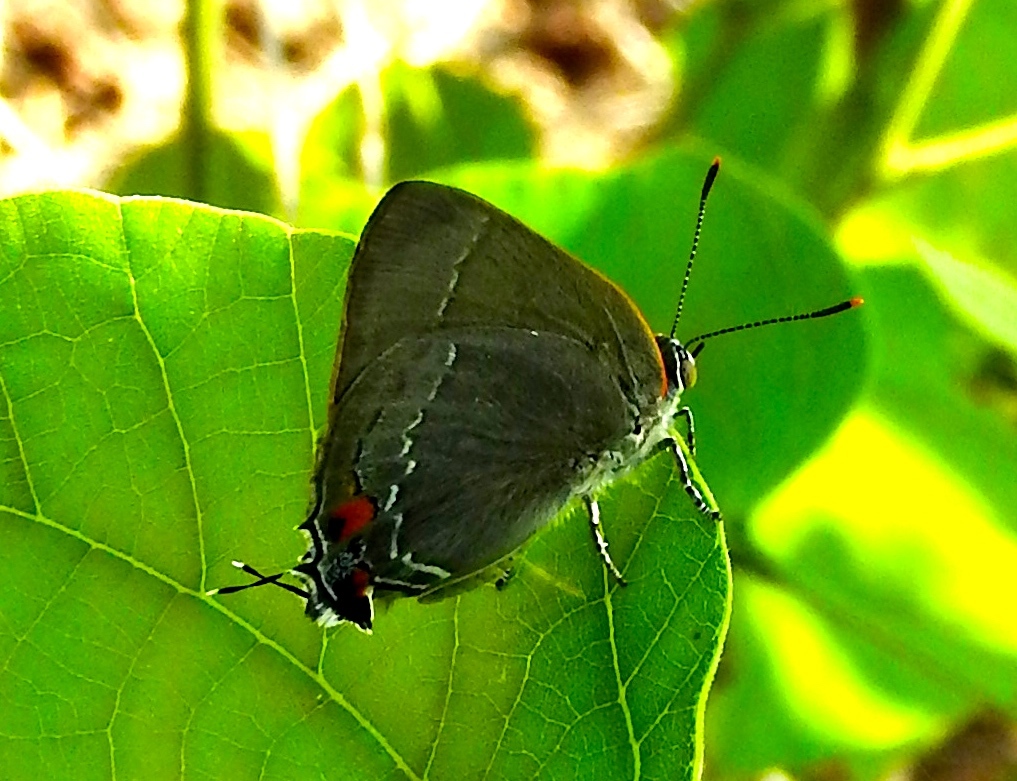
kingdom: Animalia
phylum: Arthropoda
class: Insecta
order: Lepidoptera
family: Lycaenidae
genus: Thecla
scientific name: Thecla marius
